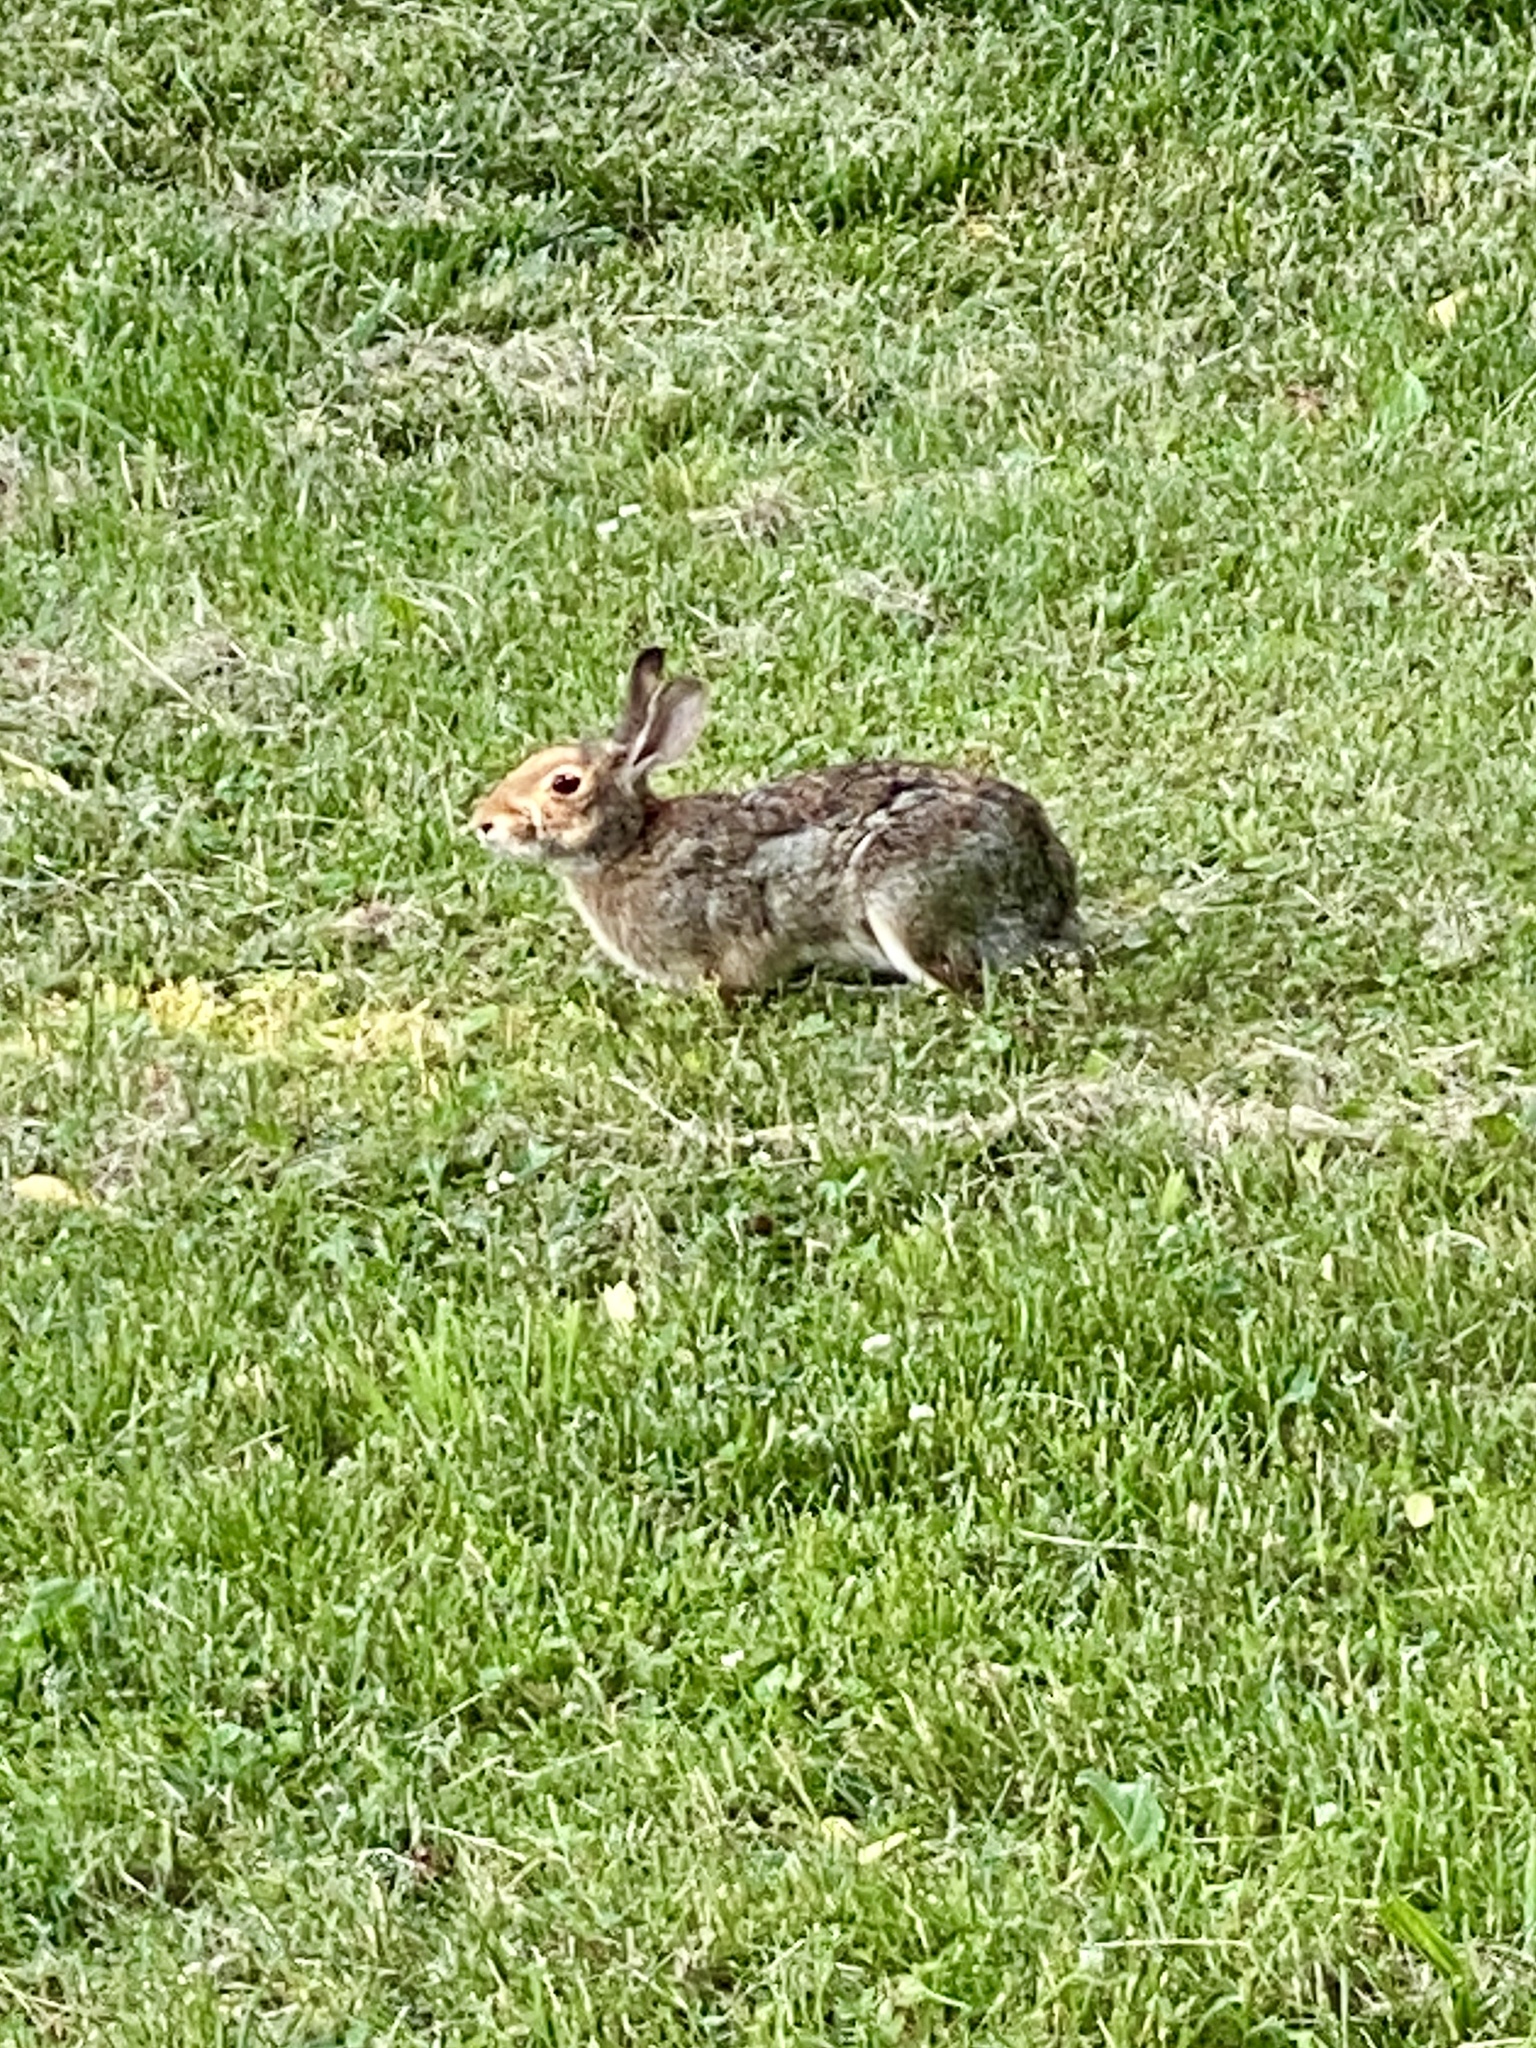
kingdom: Animalia
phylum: Chordata
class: Mammalia
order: Lagomorpha
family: Leporidae
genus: Sylvilagus
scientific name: Sylvilagus floridanus
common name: Eastern cottontail
